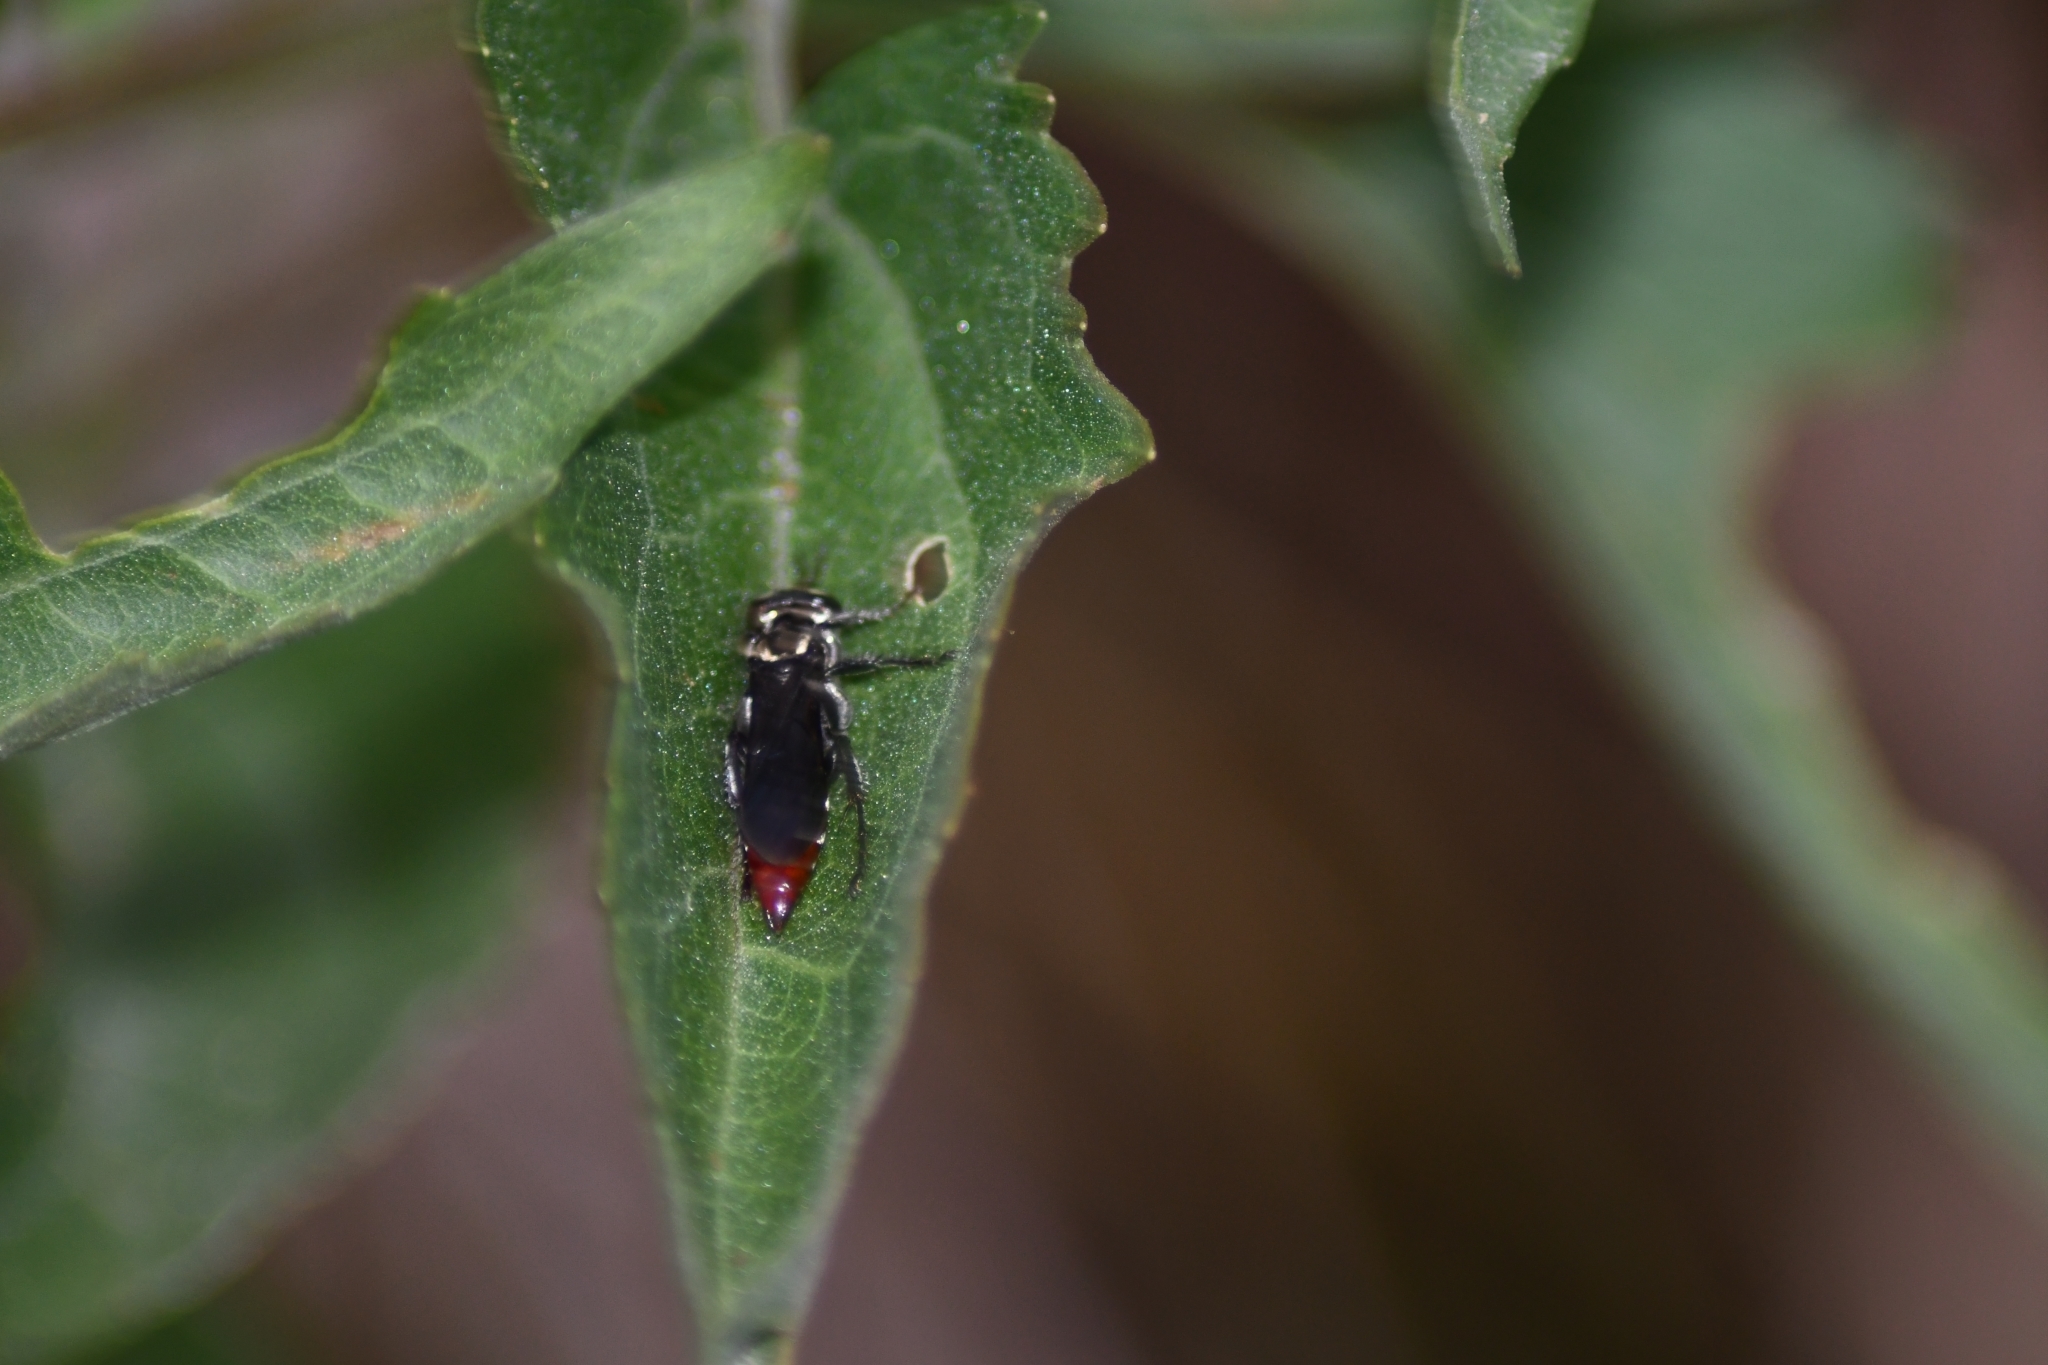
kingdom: Animalia
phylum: Arthropoda
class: Insecta
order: Hymenoptera
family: Crabronidae
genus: Larra
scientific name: Larra bicolor
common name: Wasp
